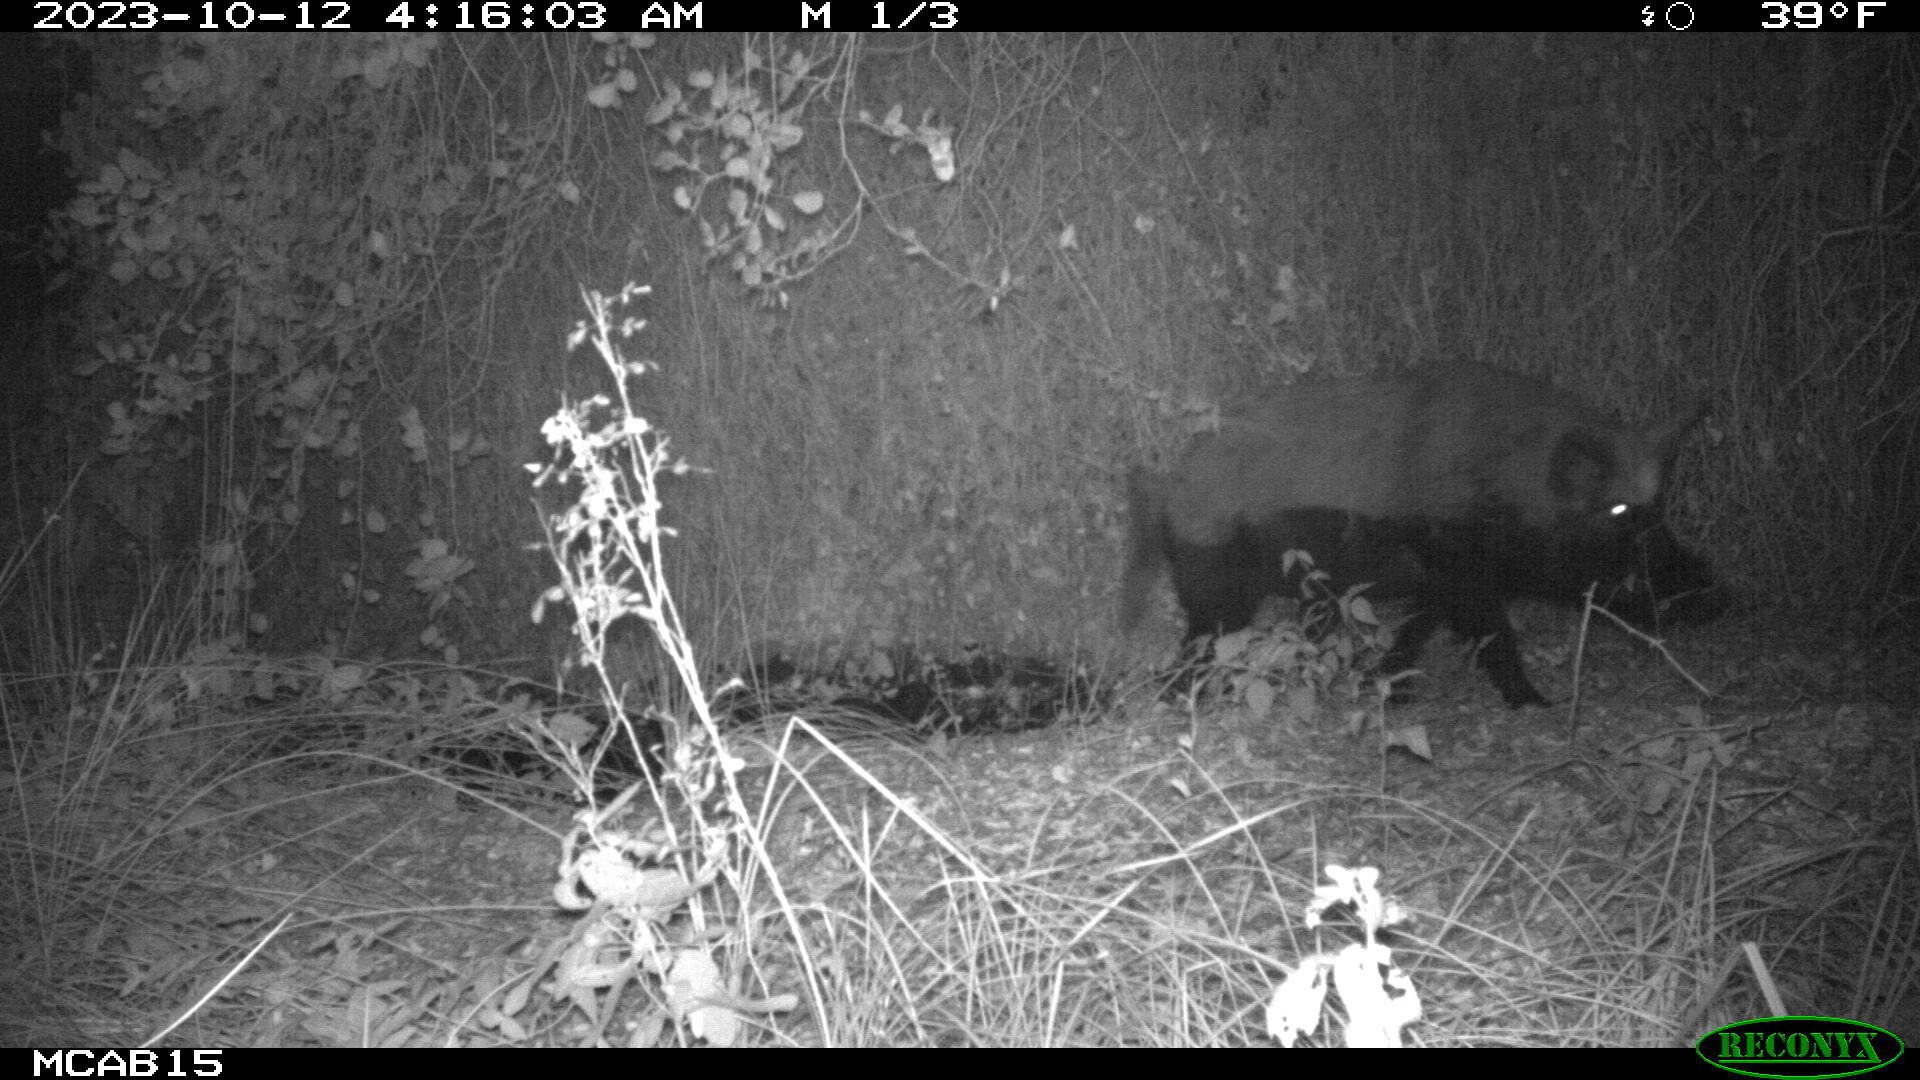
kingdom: Animalia
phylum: Chordata
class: Mammalia
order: Artiodactyla
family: Suidae
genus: Sus
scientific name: Sus scrofa
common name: Wild boar
